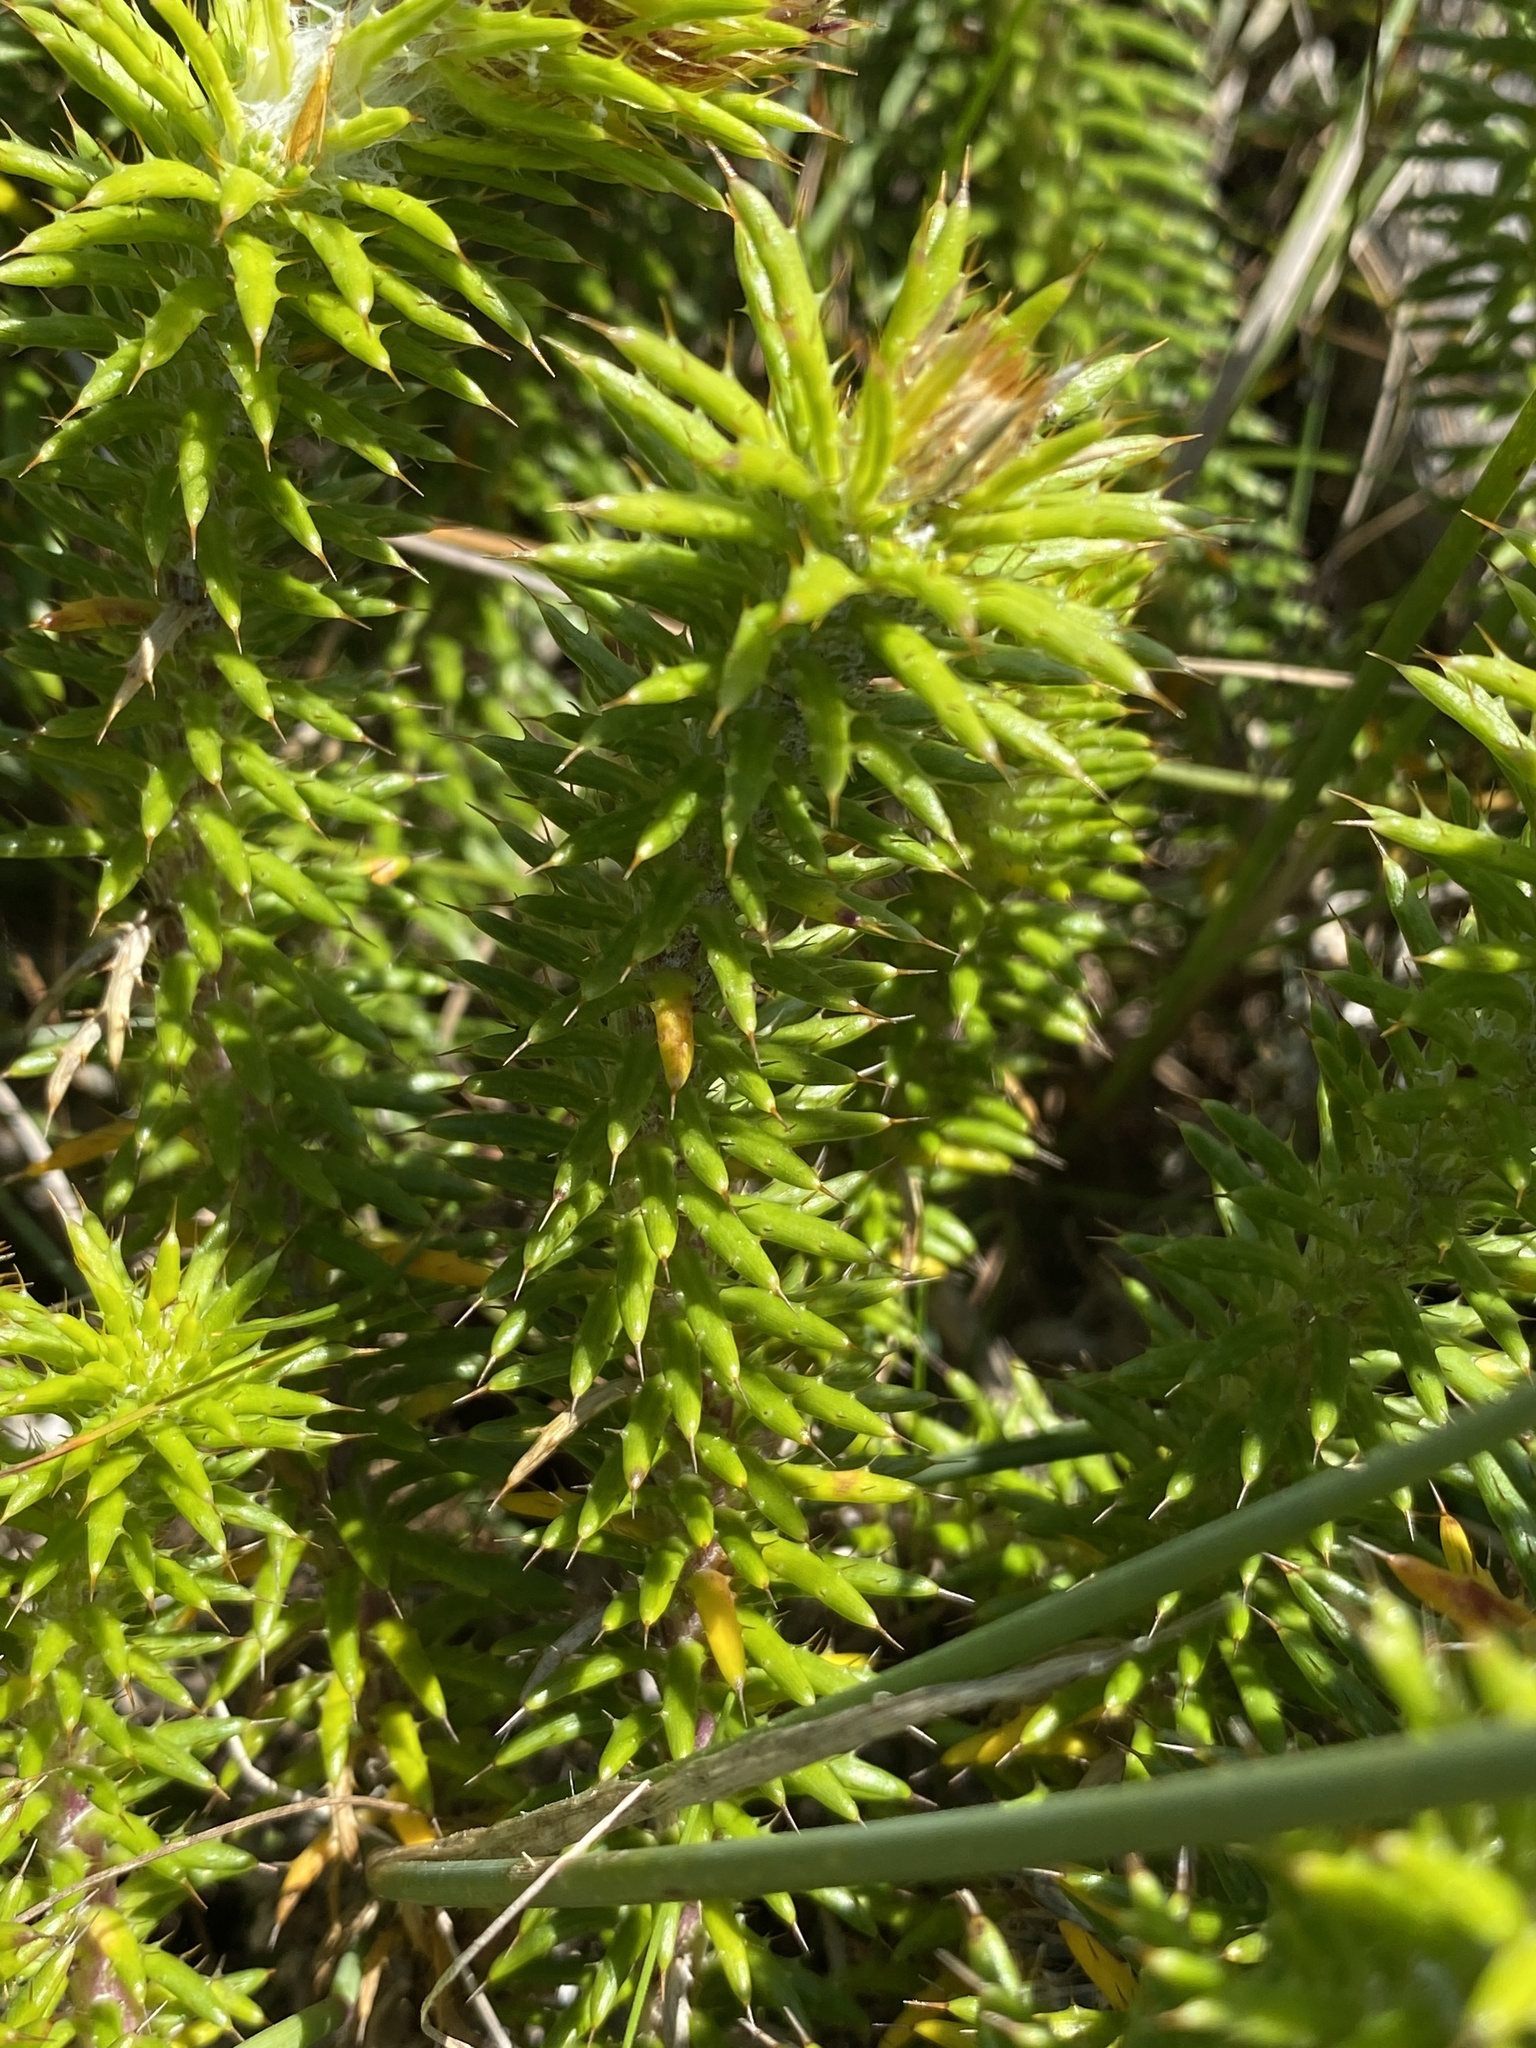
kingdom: Plantae
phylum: Tracheophyta
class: Magnoliopsida
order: Asterales
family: Asteraceae
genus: Cullumia
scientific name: Cullumia squarrosa
